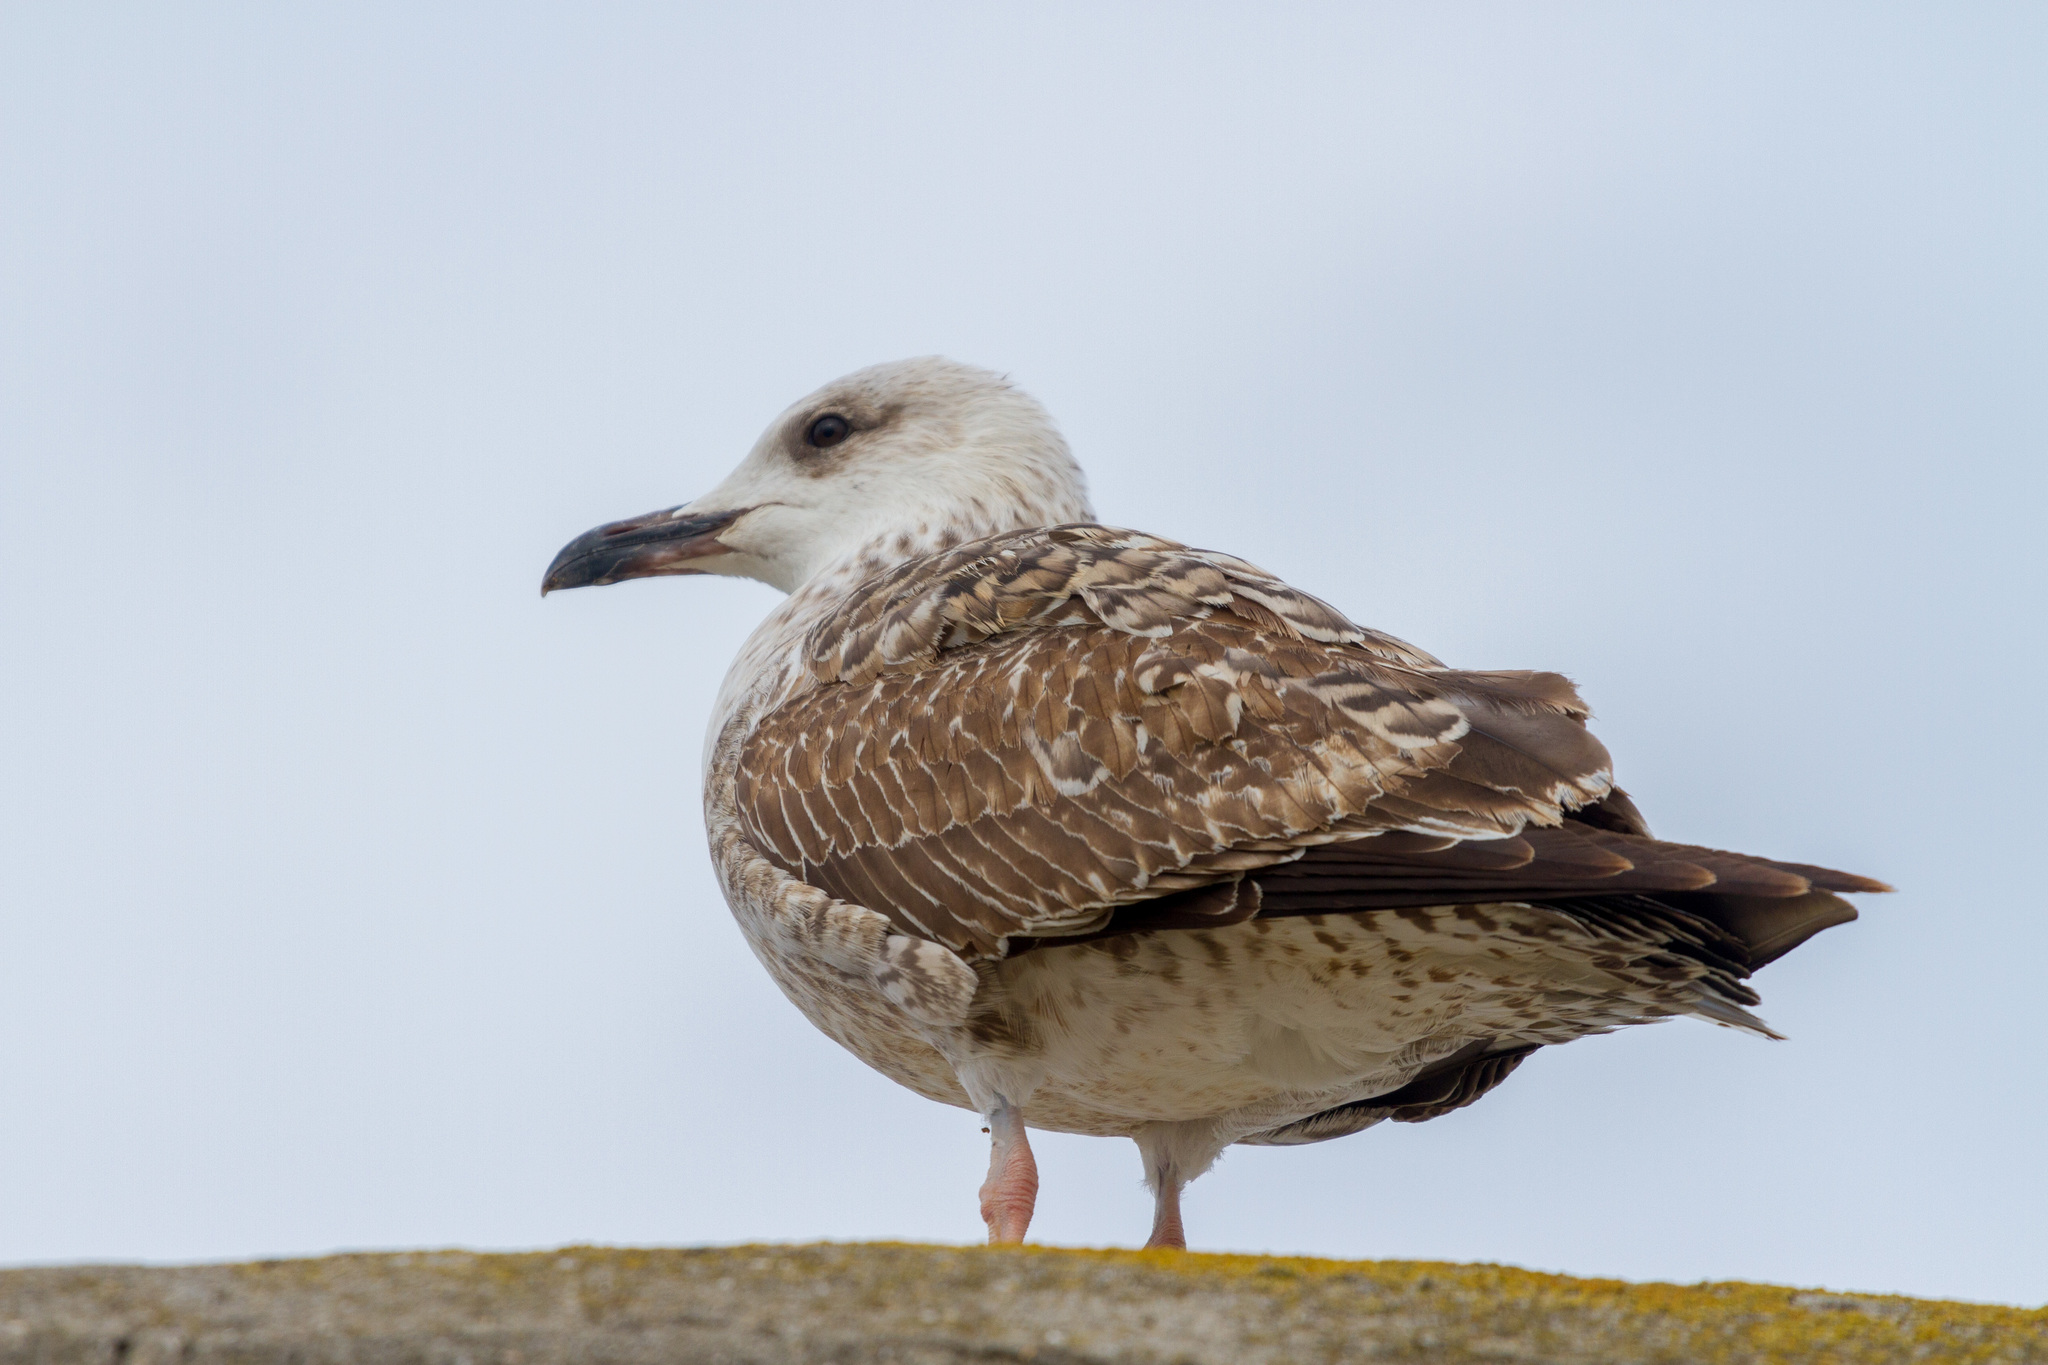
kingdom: Animalia
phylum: Chordata
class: Aves
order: Charadriiformes
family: Laridae
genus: Larus
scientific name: Larus michahellis
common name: Yellow-legged gull
